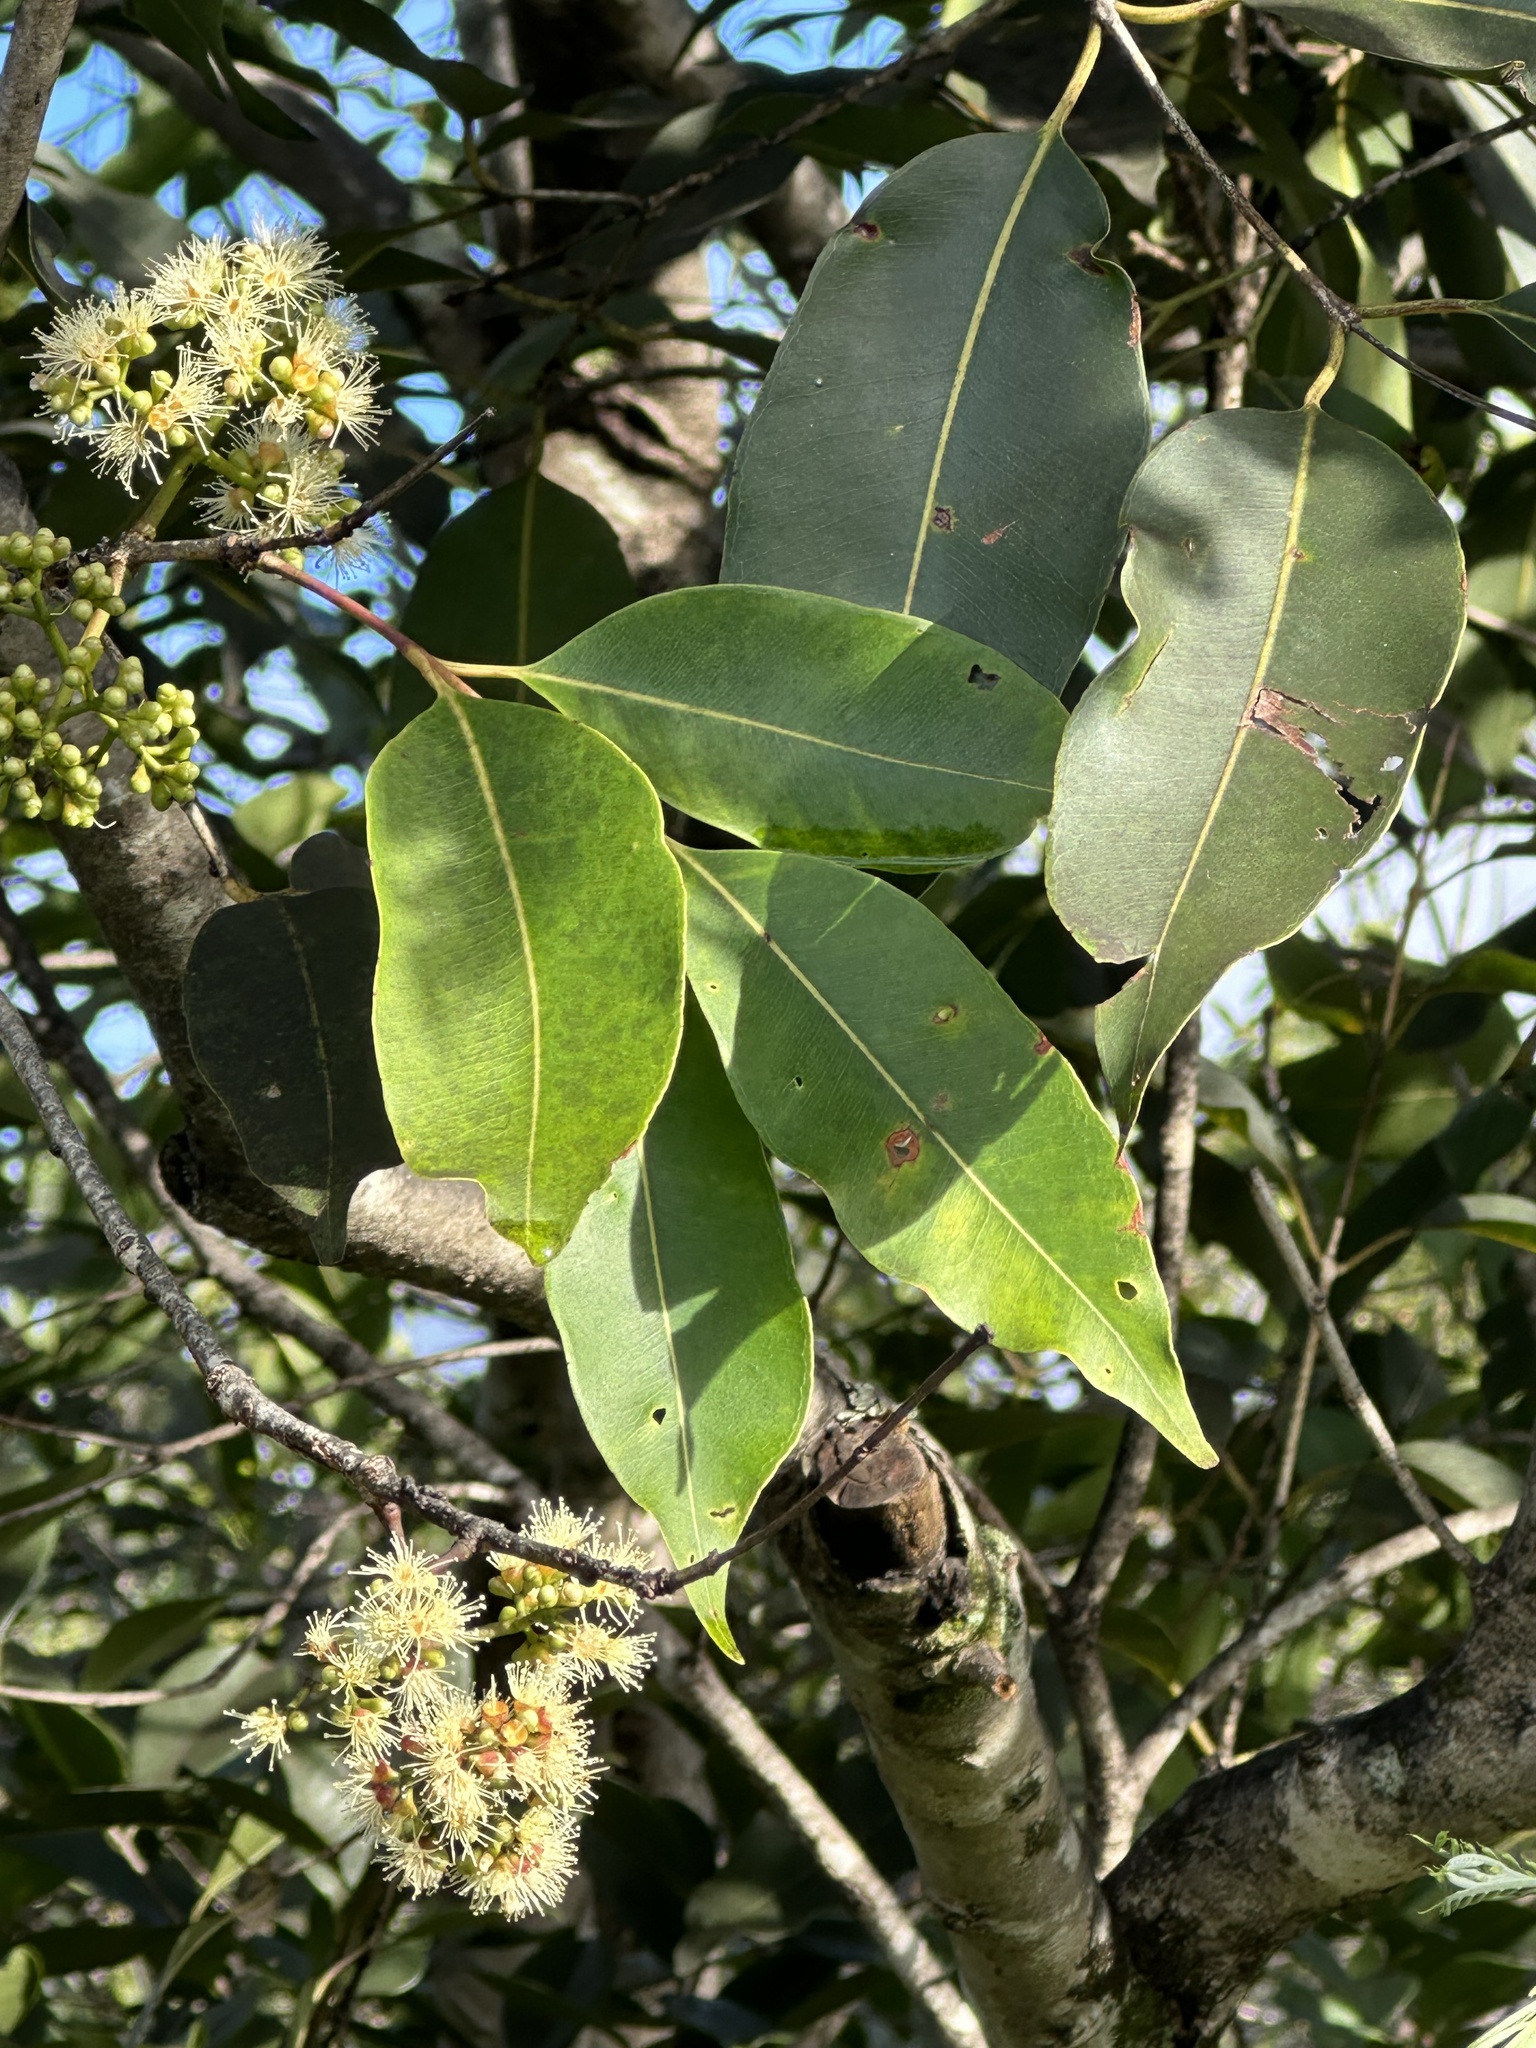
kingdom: Plantae
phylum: Tracheophyta
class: Magnoliopsida
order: Myrtales
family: Myrtaceae
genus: Syzygium
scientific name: Syzygium cumini
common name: Java plum
